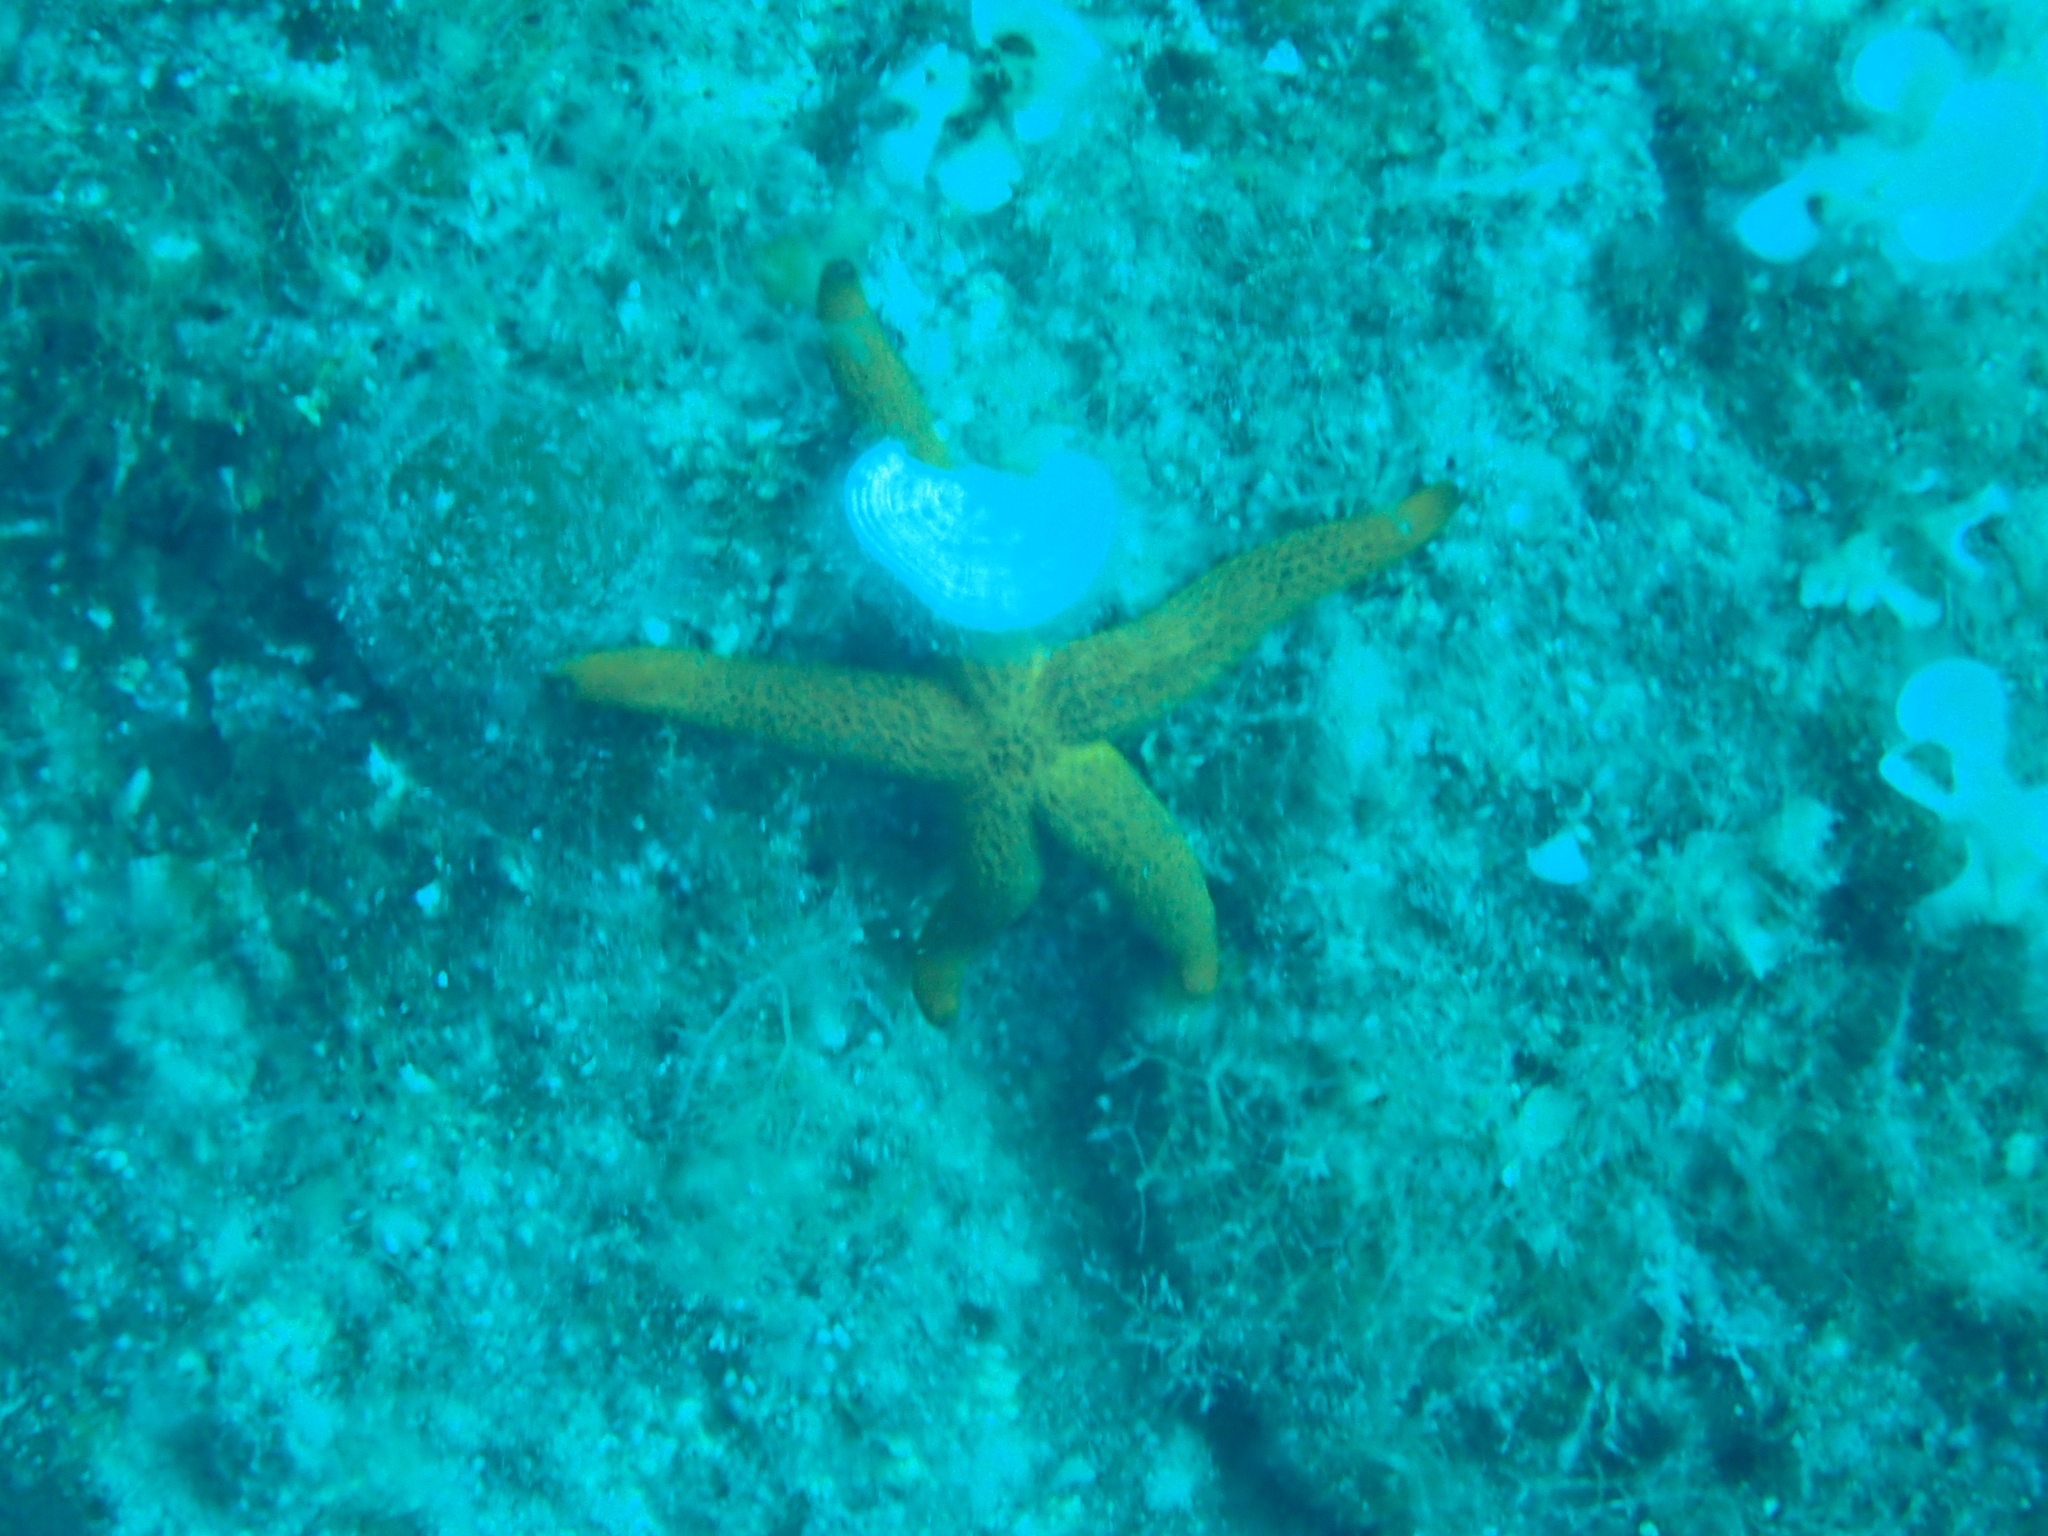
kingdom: Animalia
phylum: Echinodermata
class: Asteroidea
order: Spinulosida
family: Echinasteridae
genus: Echinaster
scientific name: Echinaster sepositus
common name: Red starfish
